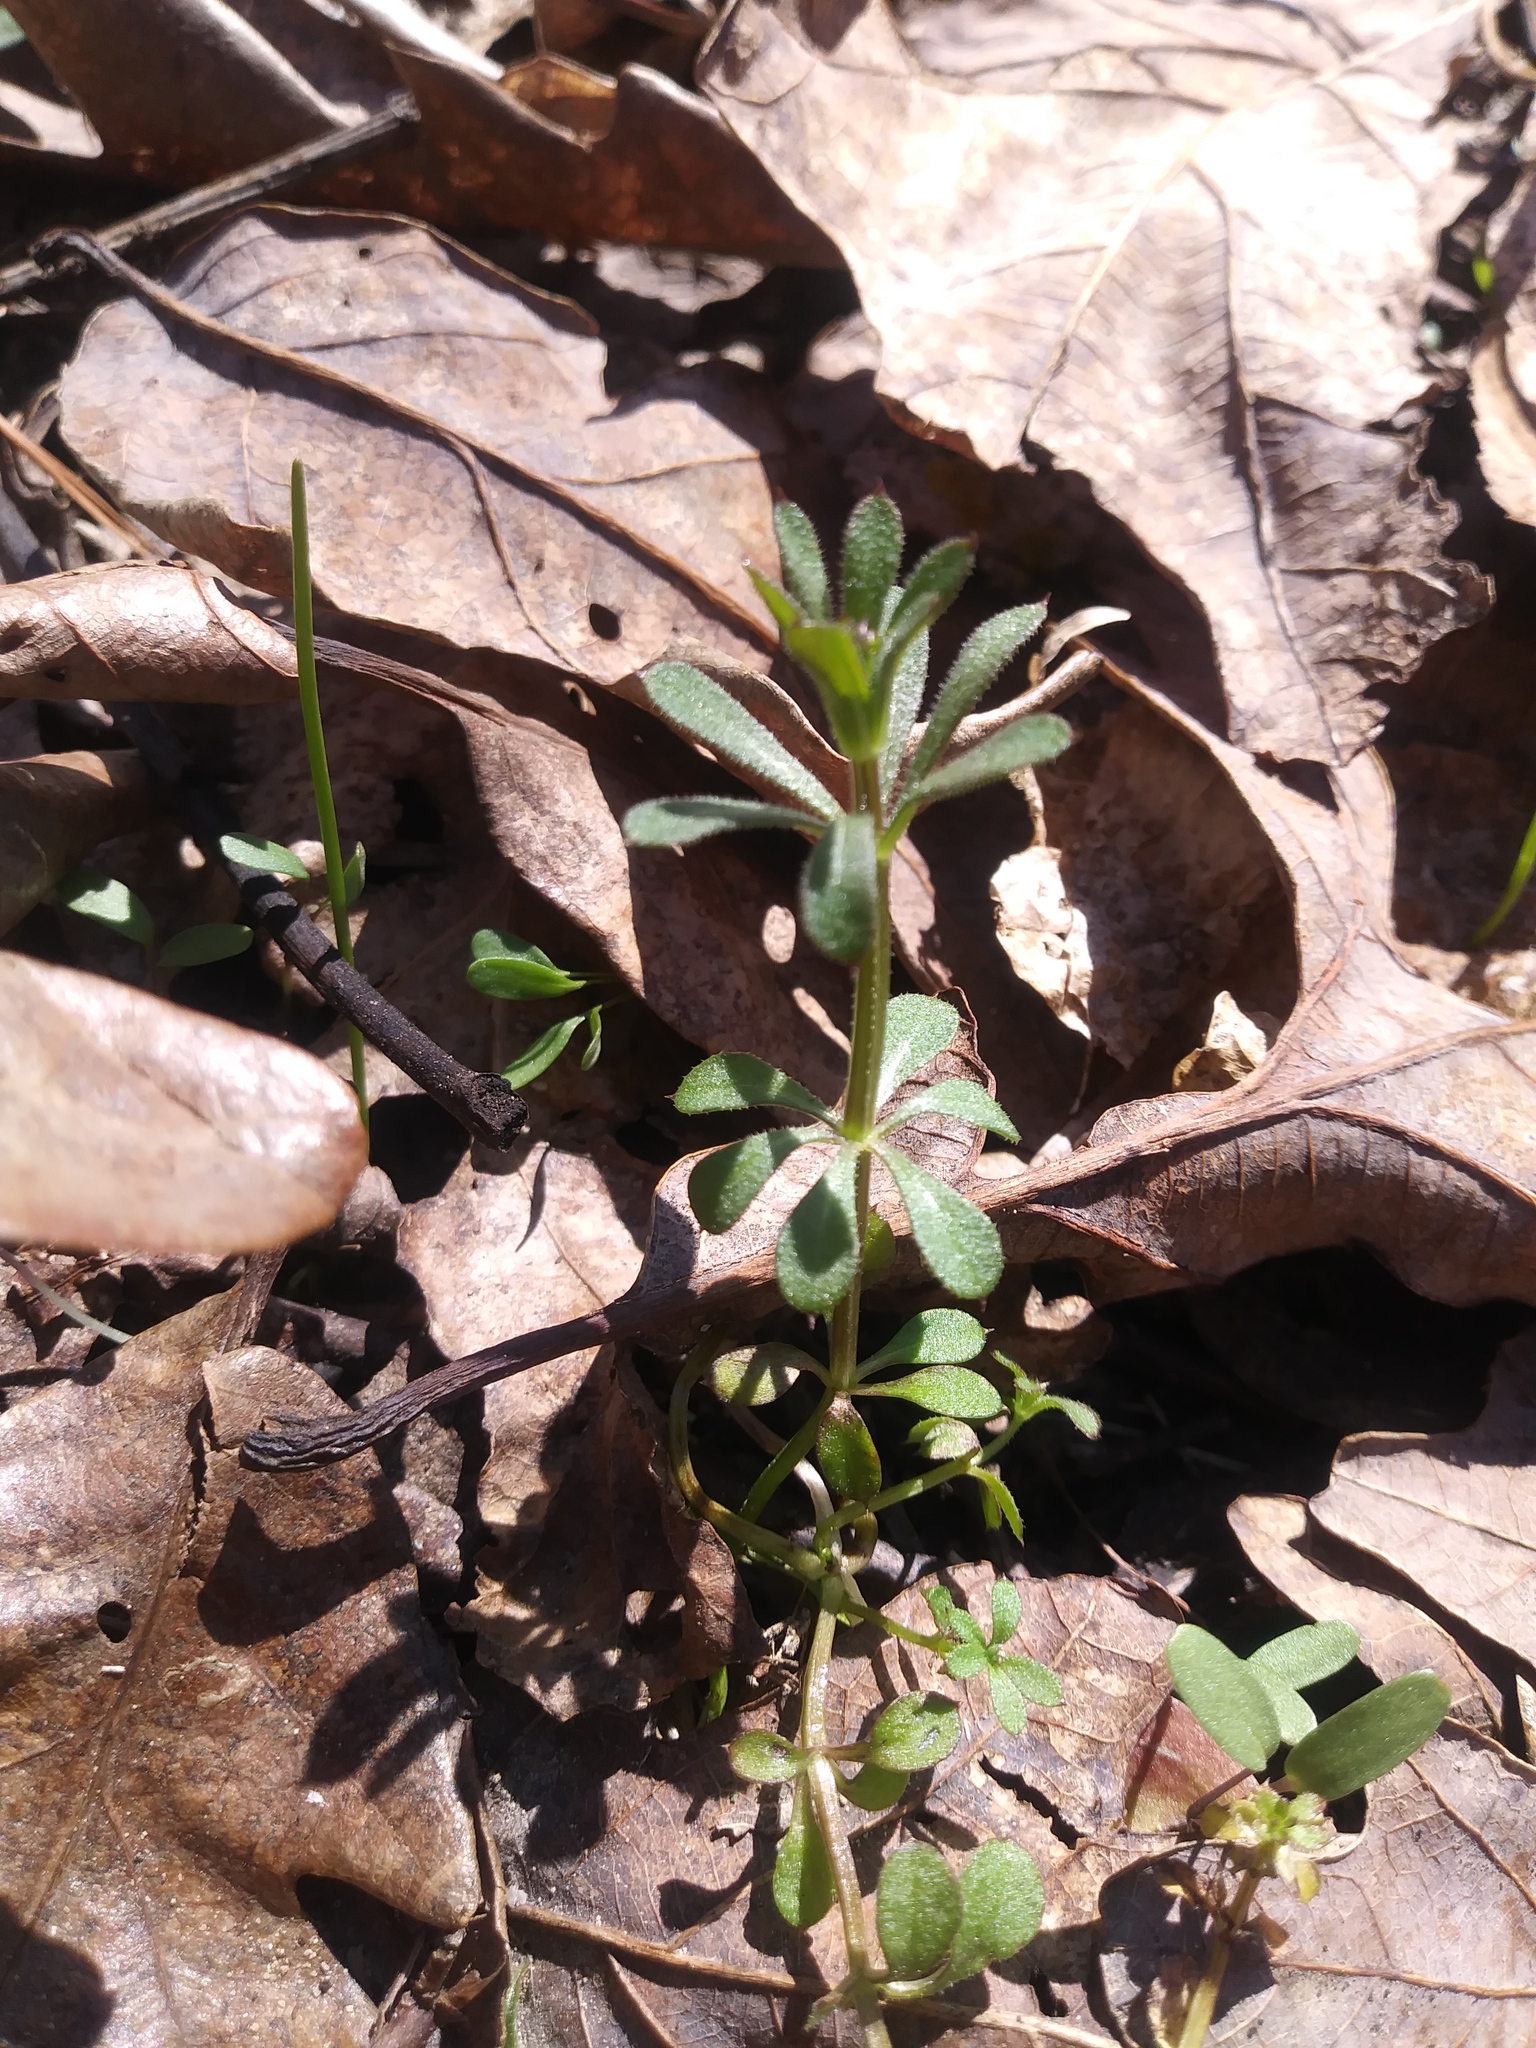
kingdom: Plantae
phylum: Tracheophyta
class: Magnoliopsida
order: Gentianales
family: Rubiaceae
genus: Galium
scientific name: Galium aparine
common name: Cleavers
